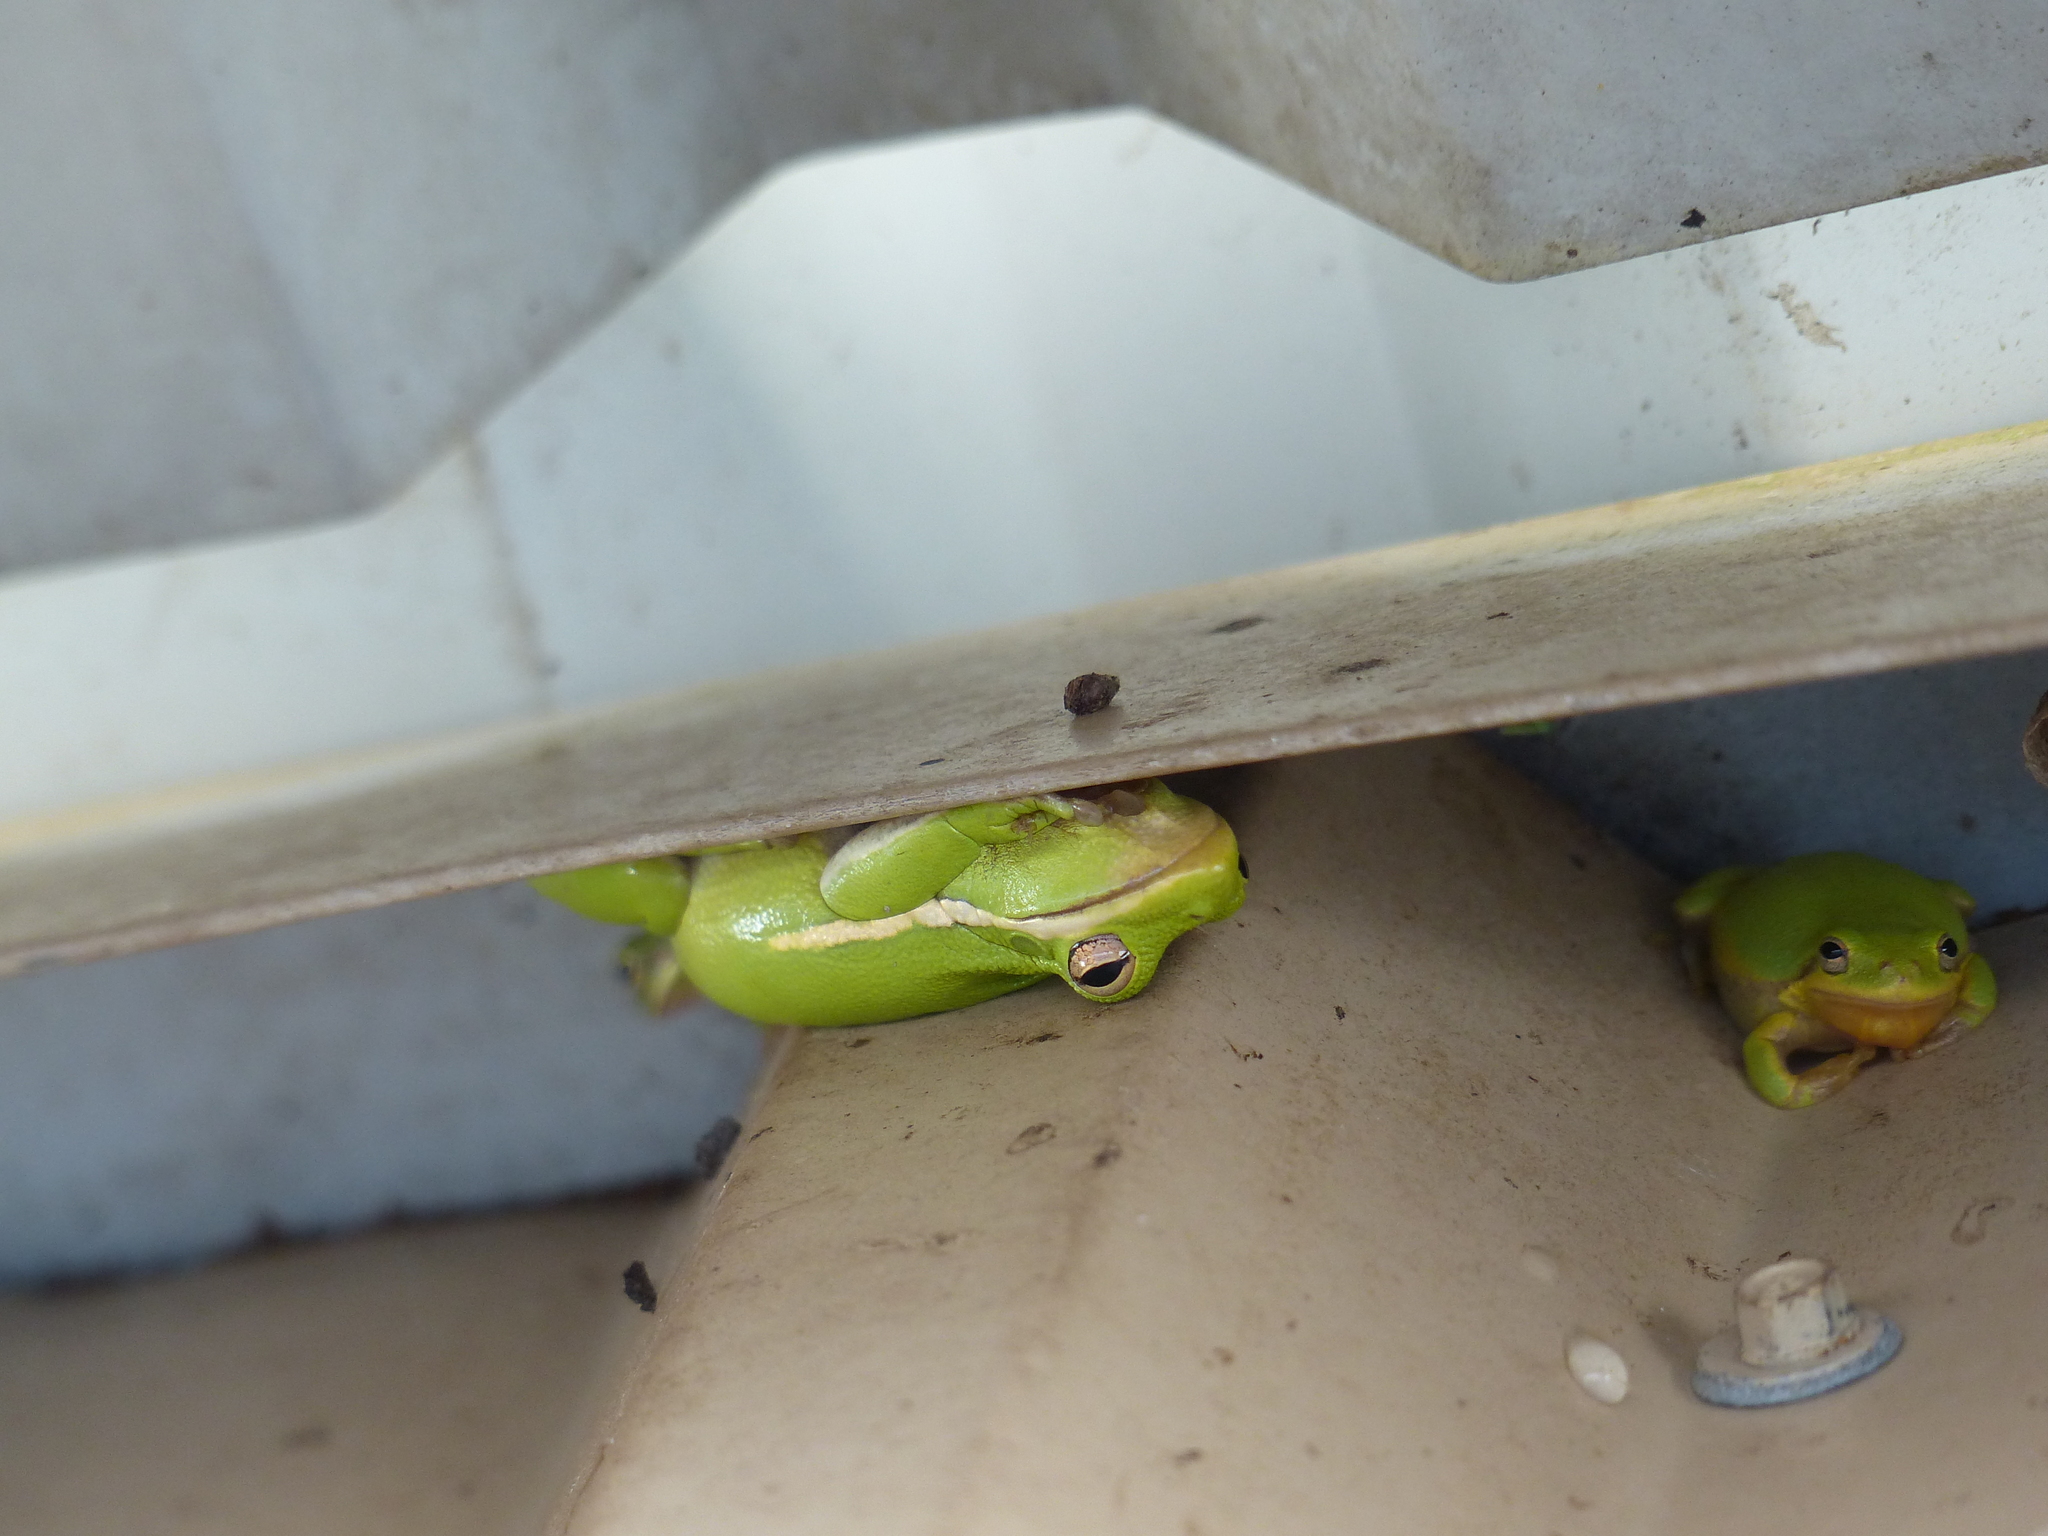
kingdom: Animalia
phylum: Chordata
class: Amphibia
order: Anura
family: Hylidae
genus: Dryophytes
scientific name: Dryophytes cinereus
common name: Green treefrog
